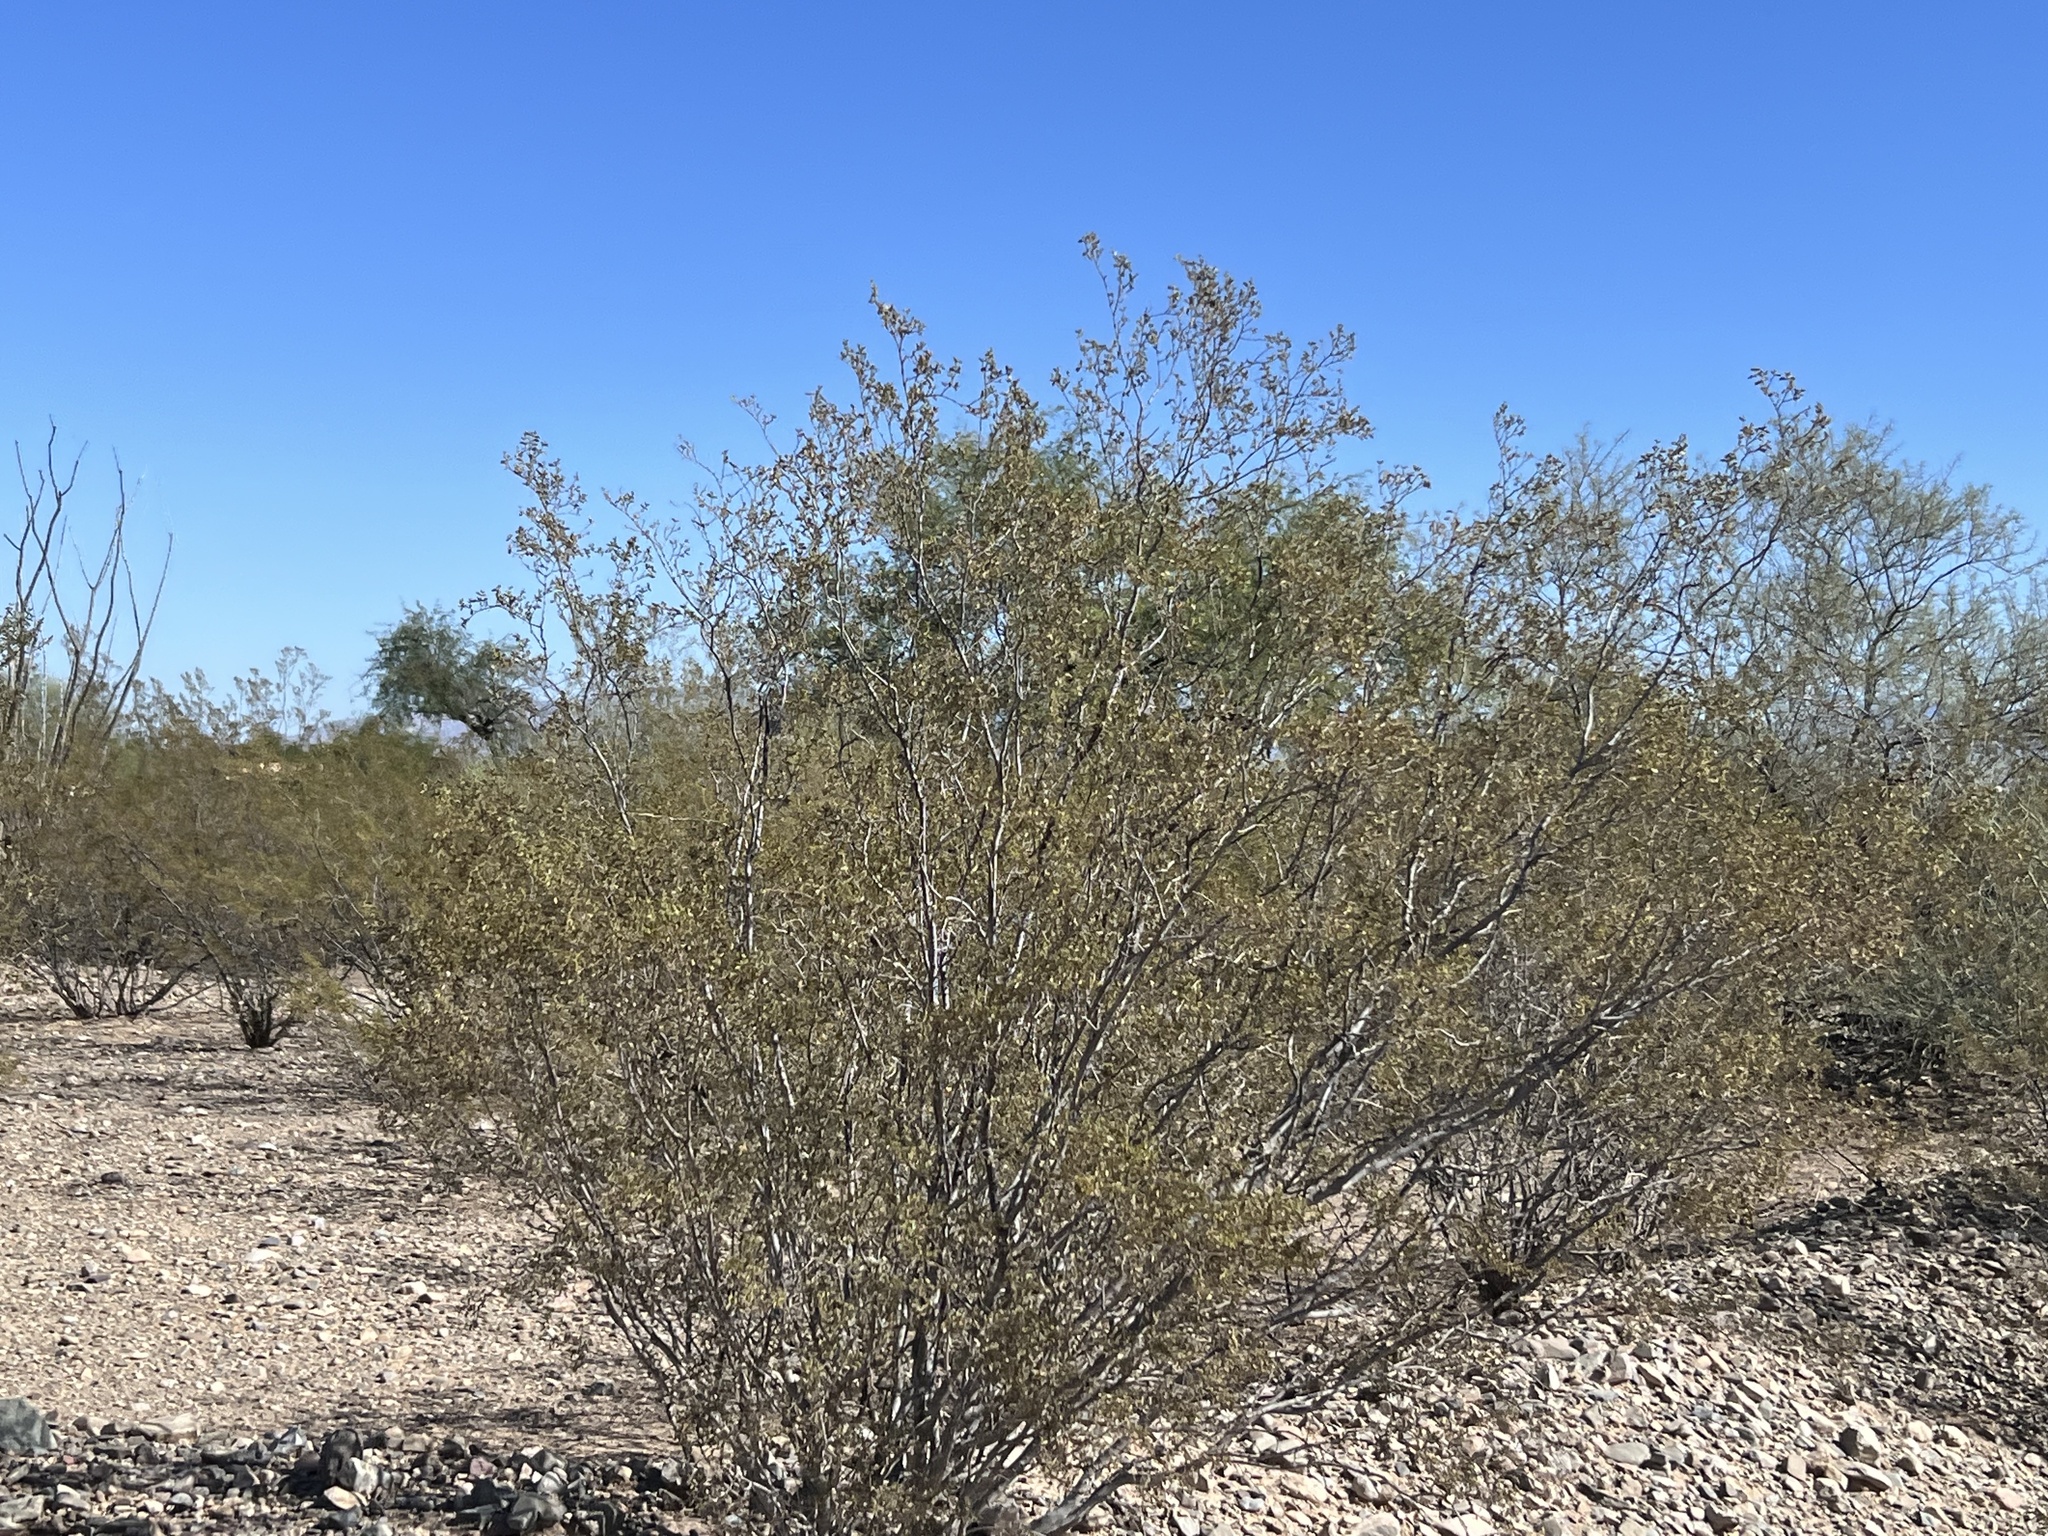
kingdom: Plantae
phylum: Tracheophyta
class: Magnoliopsida
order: Zygophyllales
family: Zygophyllaceae
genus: Larrea
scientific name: Larrea tridentata
